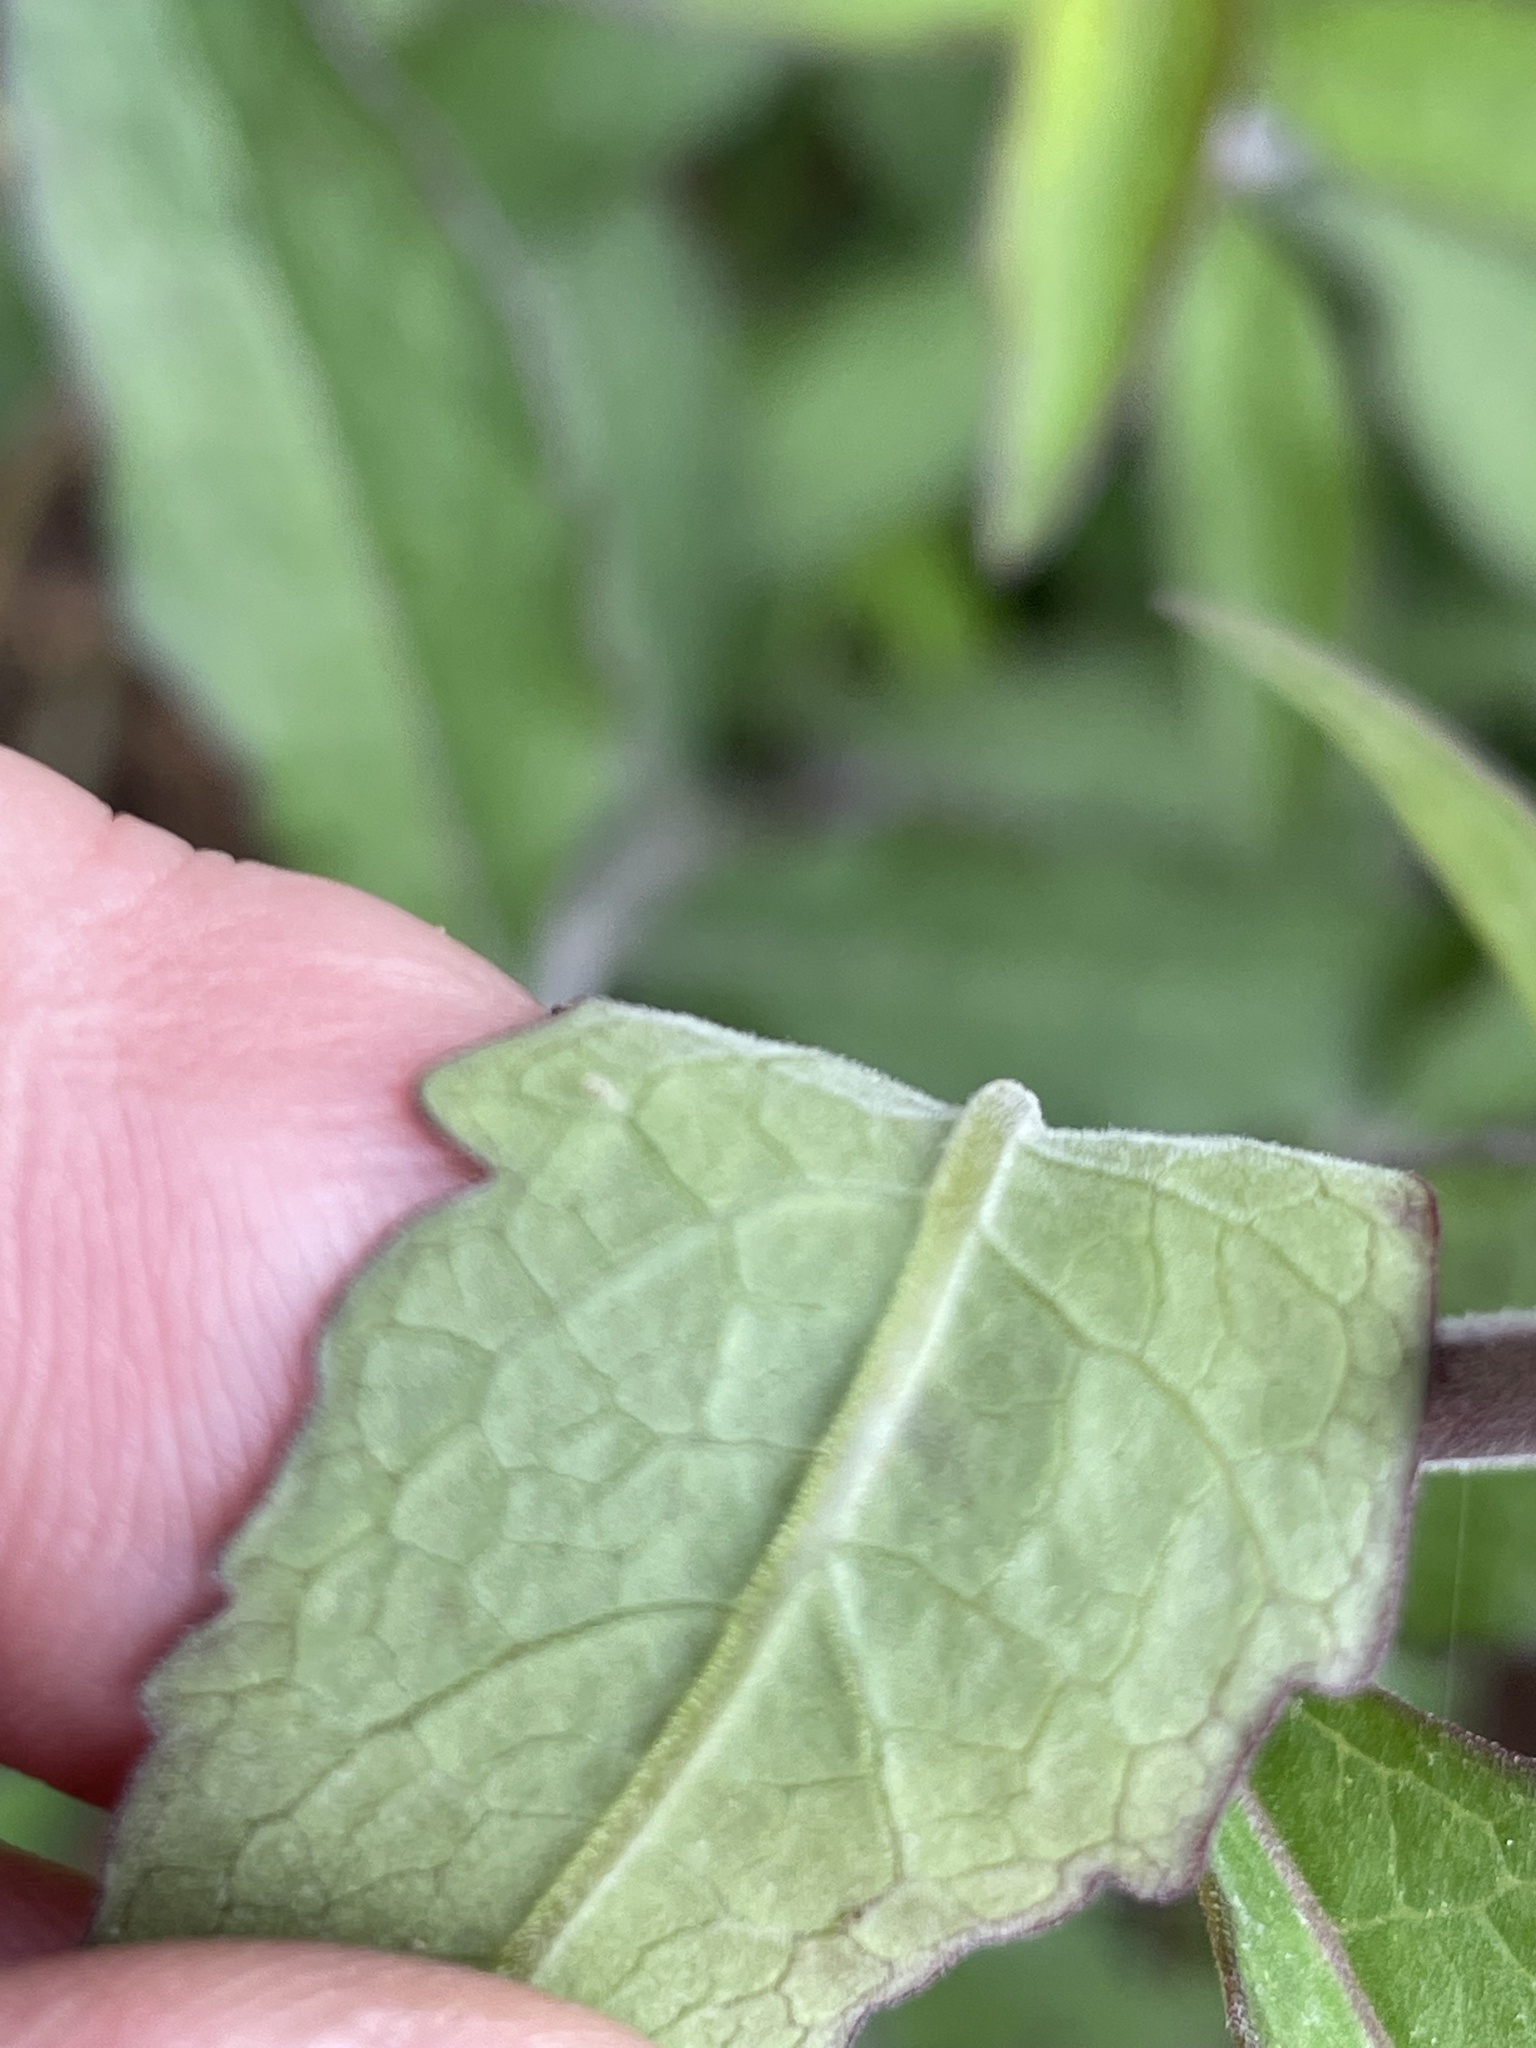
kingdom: Plantae
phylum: Tracheophyta
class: Magnoliopsida
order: Lamiales
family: Orobanchaceae
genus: Aureolaria
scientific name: Aureolaria virginica
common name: Downy false foxglove
